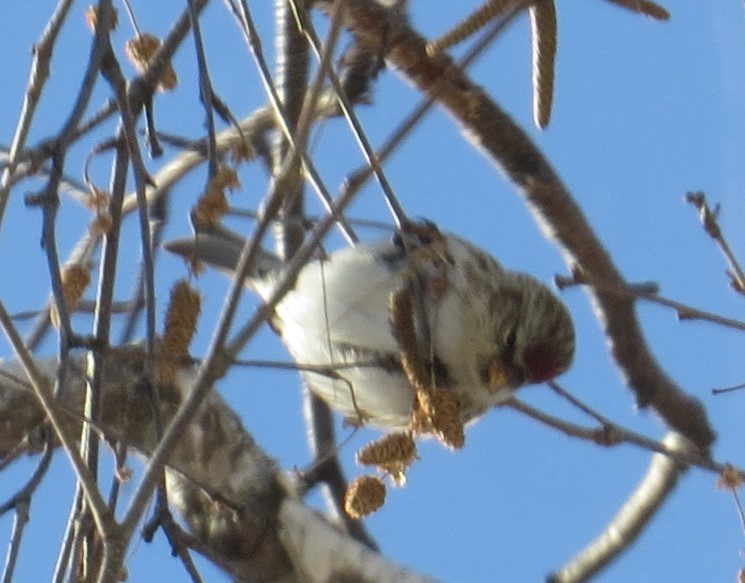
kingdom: Animalia
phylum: Chordata
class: Aves
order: Passeriformes
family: Fringillidae
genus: Acanthis
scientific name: Acanthis flammea
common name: Common redpoll
